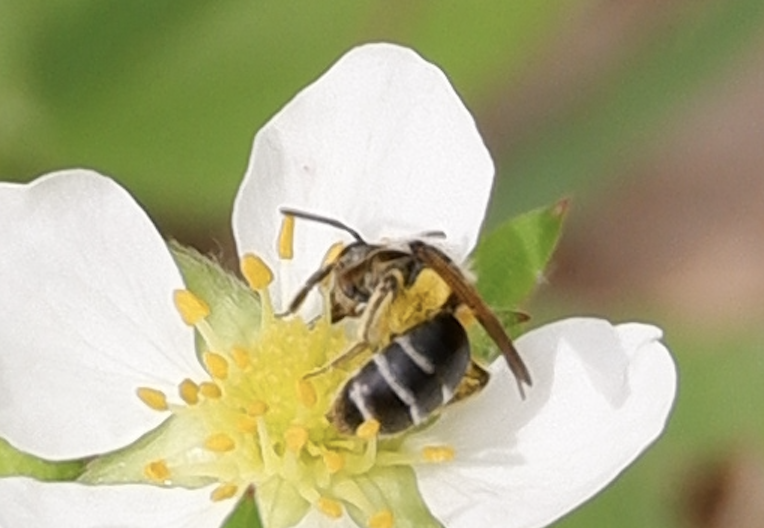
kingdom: Animalia
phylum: Arthropoda
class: Insecta
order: Hymenoptera
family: Andrenidae
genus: Andrena
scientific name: Andrena nasonii
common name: Nason's mining bee
